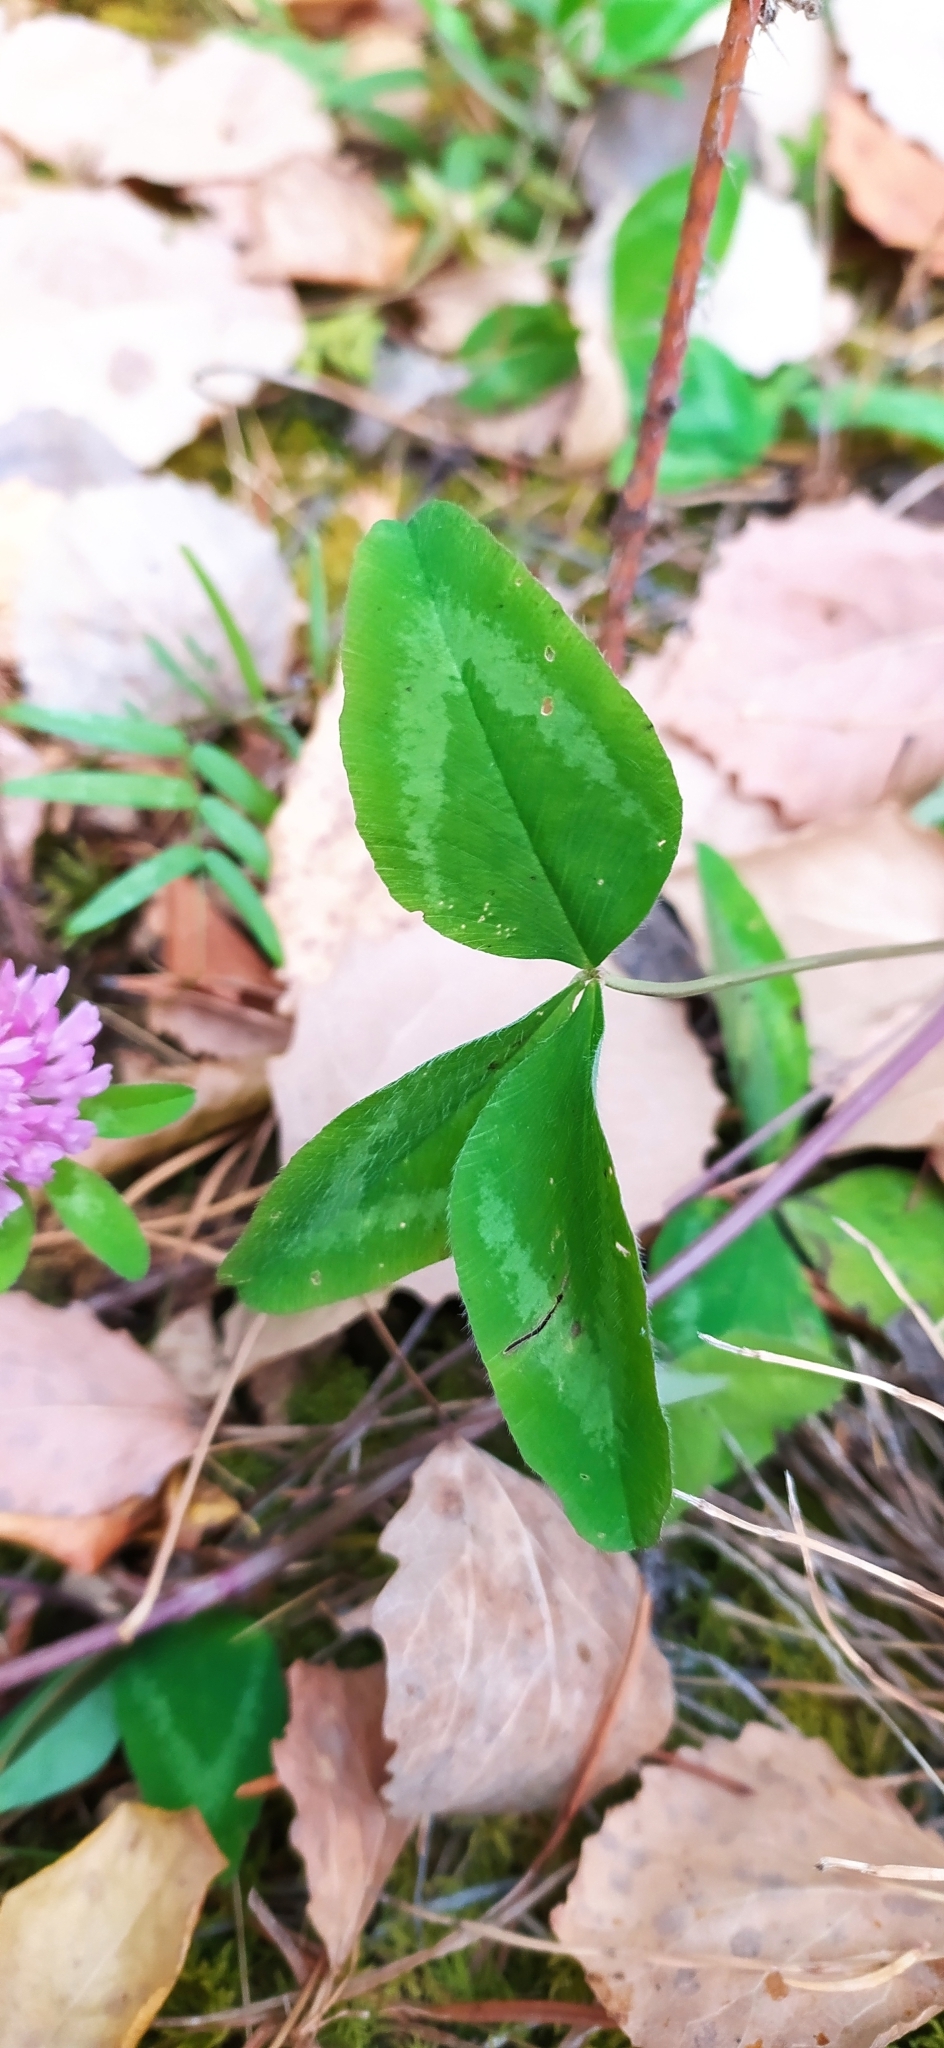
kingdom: Plantae
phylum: Tracheophyta
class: Magnoliopsida
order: Fabales
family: Fabaceae
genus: Trifolium
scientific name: Trifolium pratense
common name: Red clover
